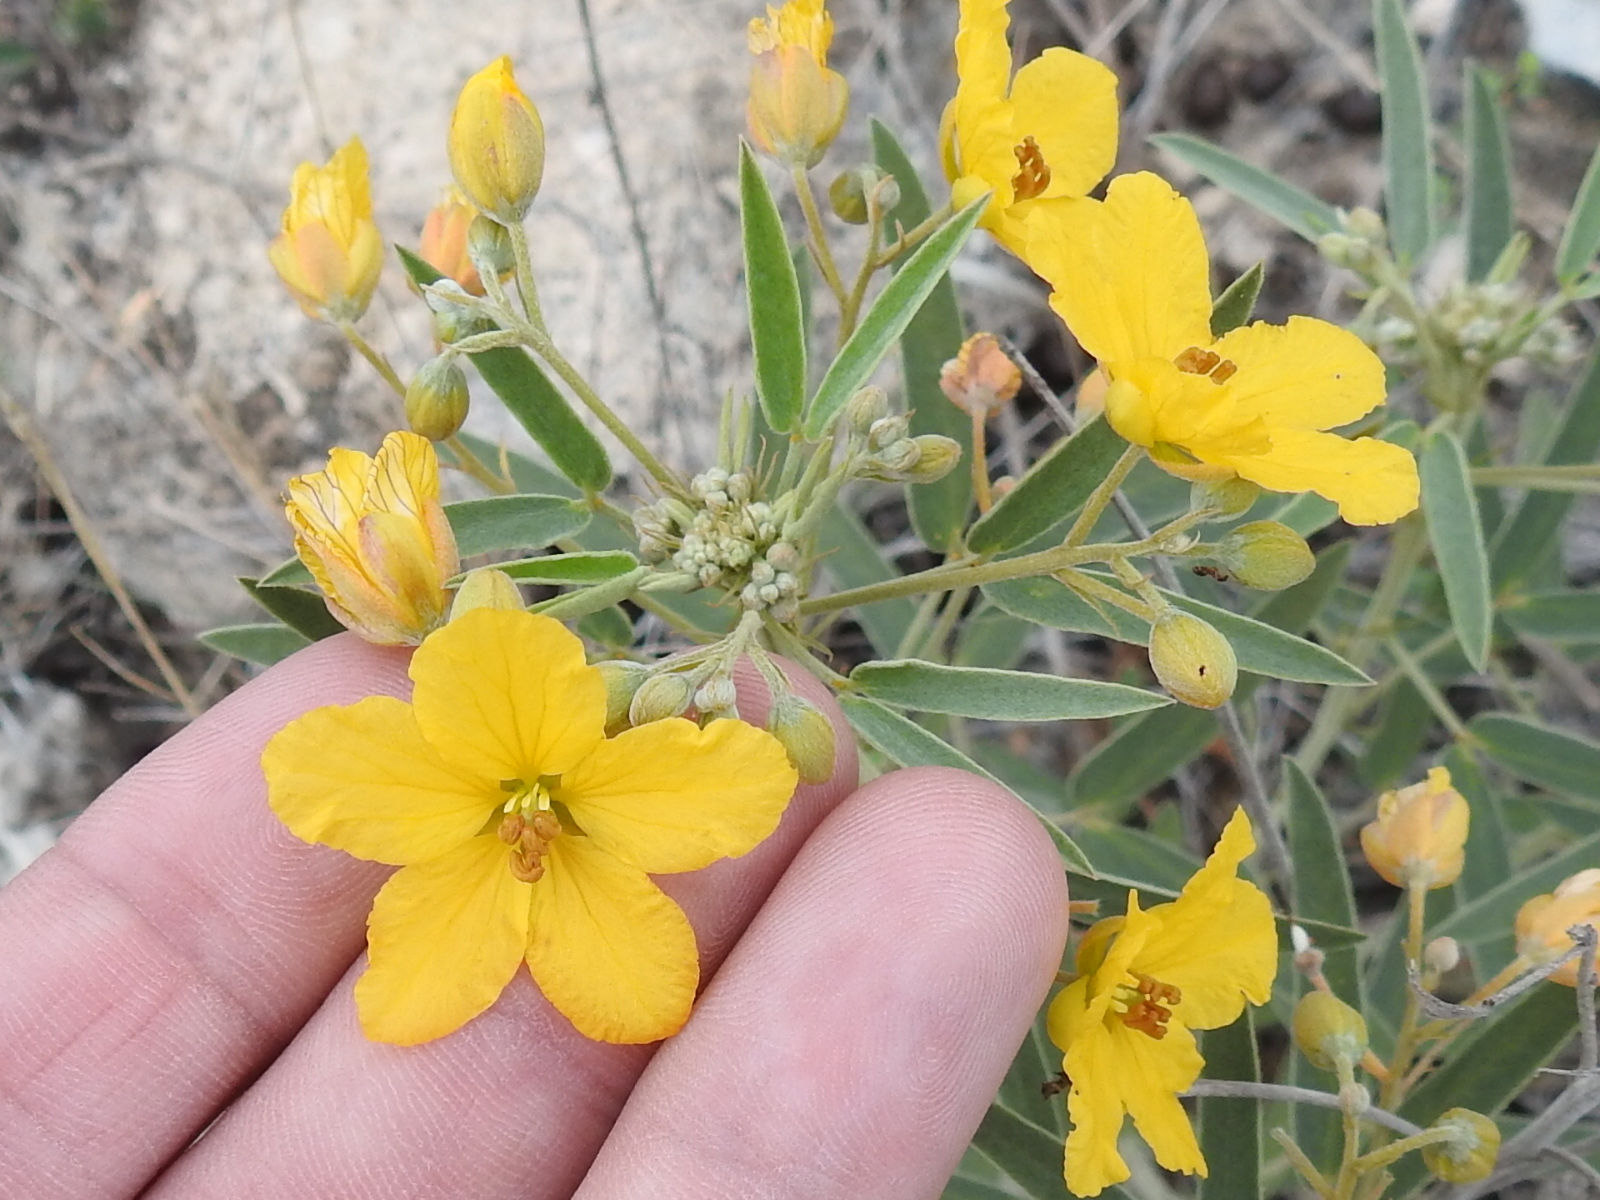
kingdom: Plantae
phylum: Tracheophyta
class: Magnoliopsida
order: Fabales
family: Fabaceae
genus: Senna
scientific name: Senna roemeriana
